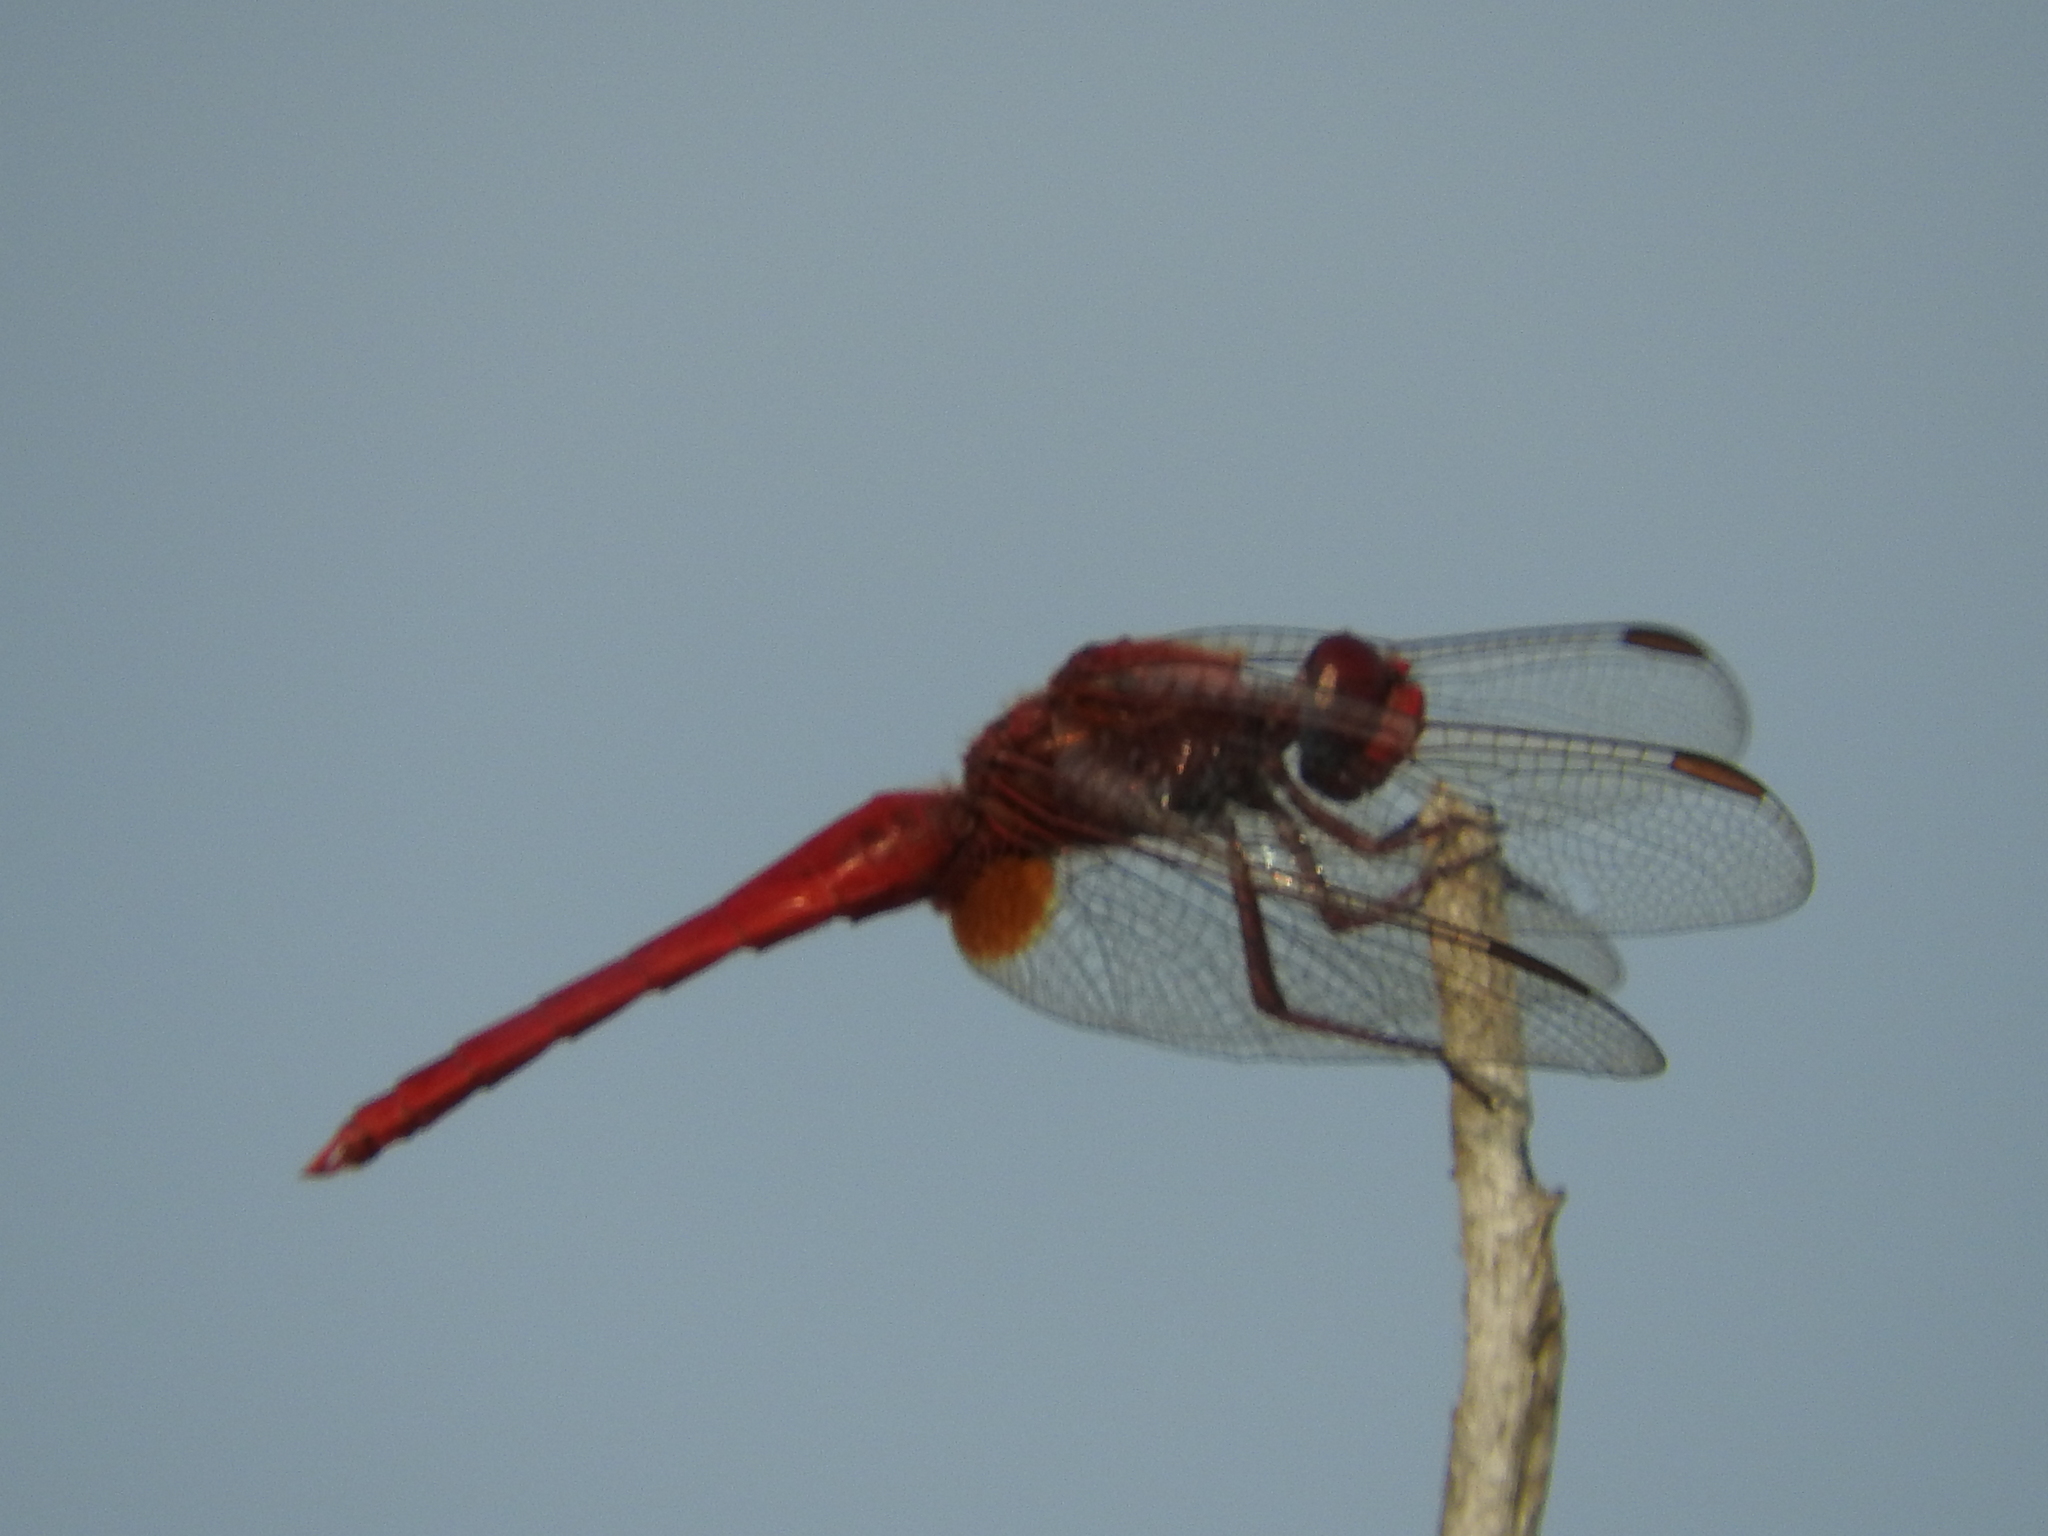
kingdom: Animalia
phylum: Arthropoda
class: Insecta
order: Odonata
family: Libellulidae
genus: Crocothemis
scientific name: Crocothemis erythraea
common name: Scarlet dragonfly
